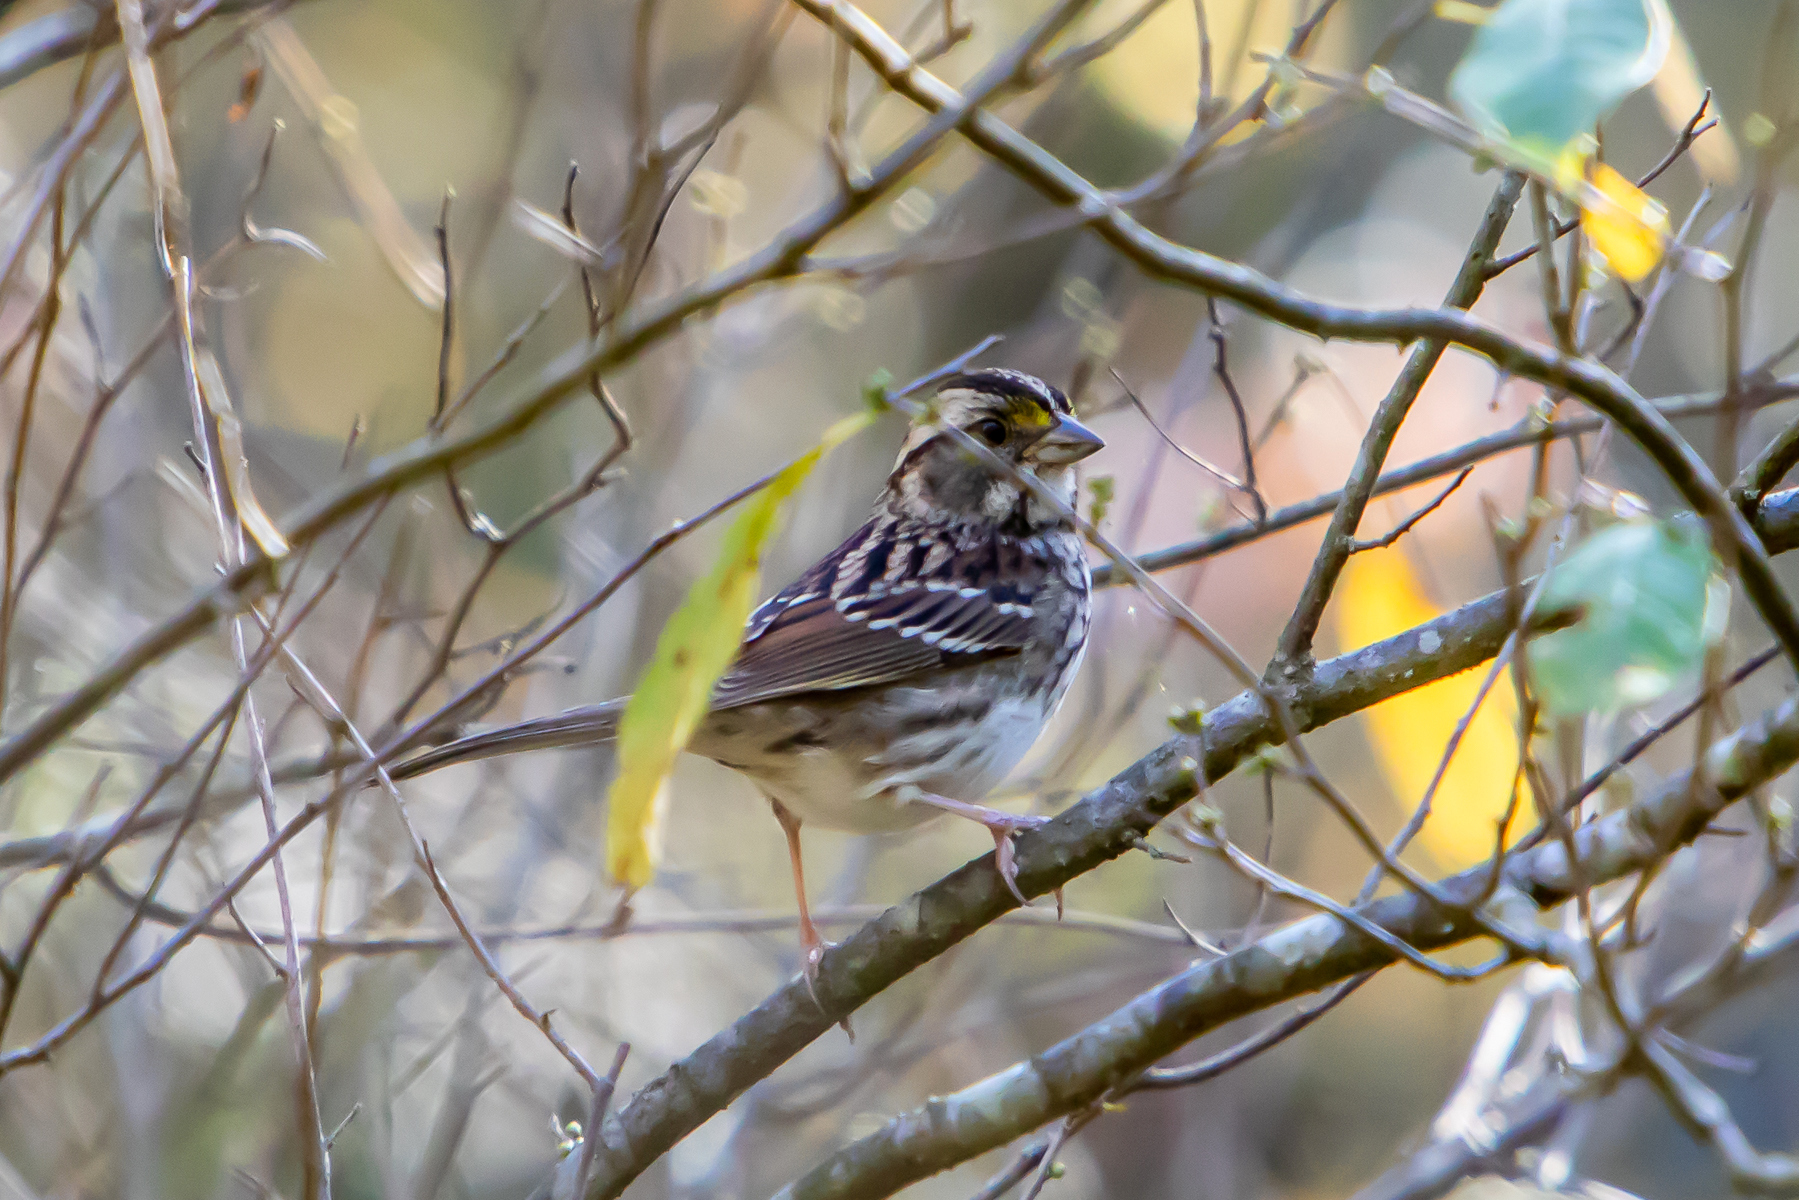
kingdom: Animalia
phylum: Chordata
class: Aves
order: Passeriformes
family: Passerellidae
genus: Zonotrichia
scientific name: Zonotrichia albicollis
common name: White-throated sparrow
